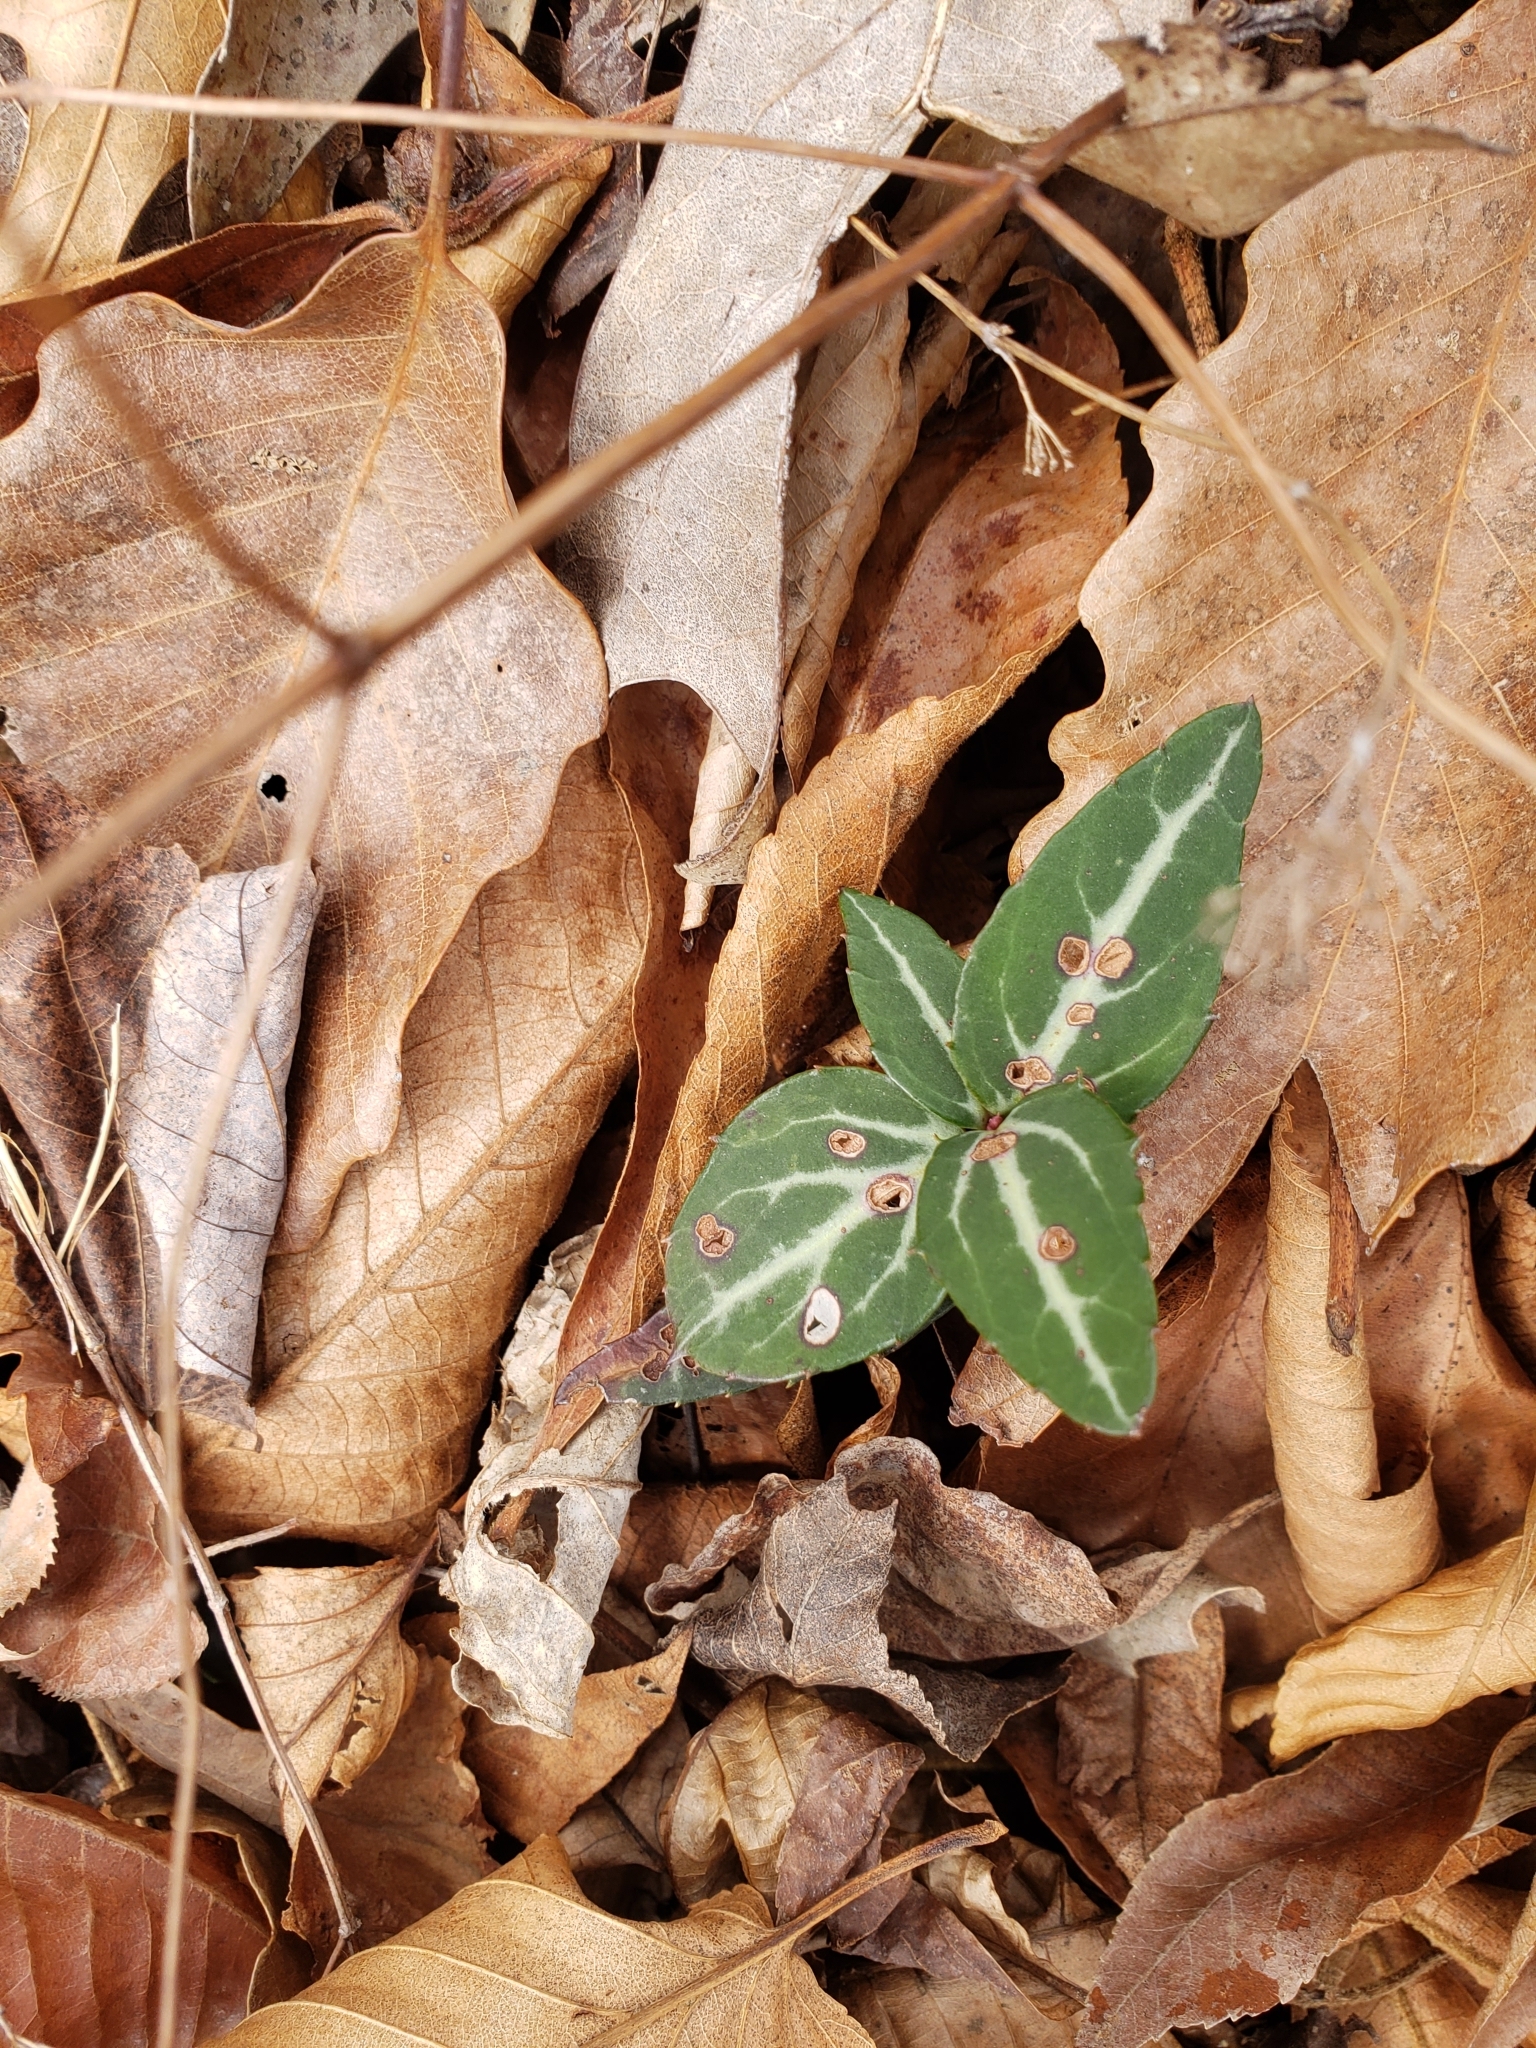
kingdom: Plantae
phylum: Tracheophyta
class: Magnoliopsida
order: Ericales
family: Ericaceae
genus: Chimaphila
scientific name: Chimaphila maculata
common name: Spotted pipsissewa
